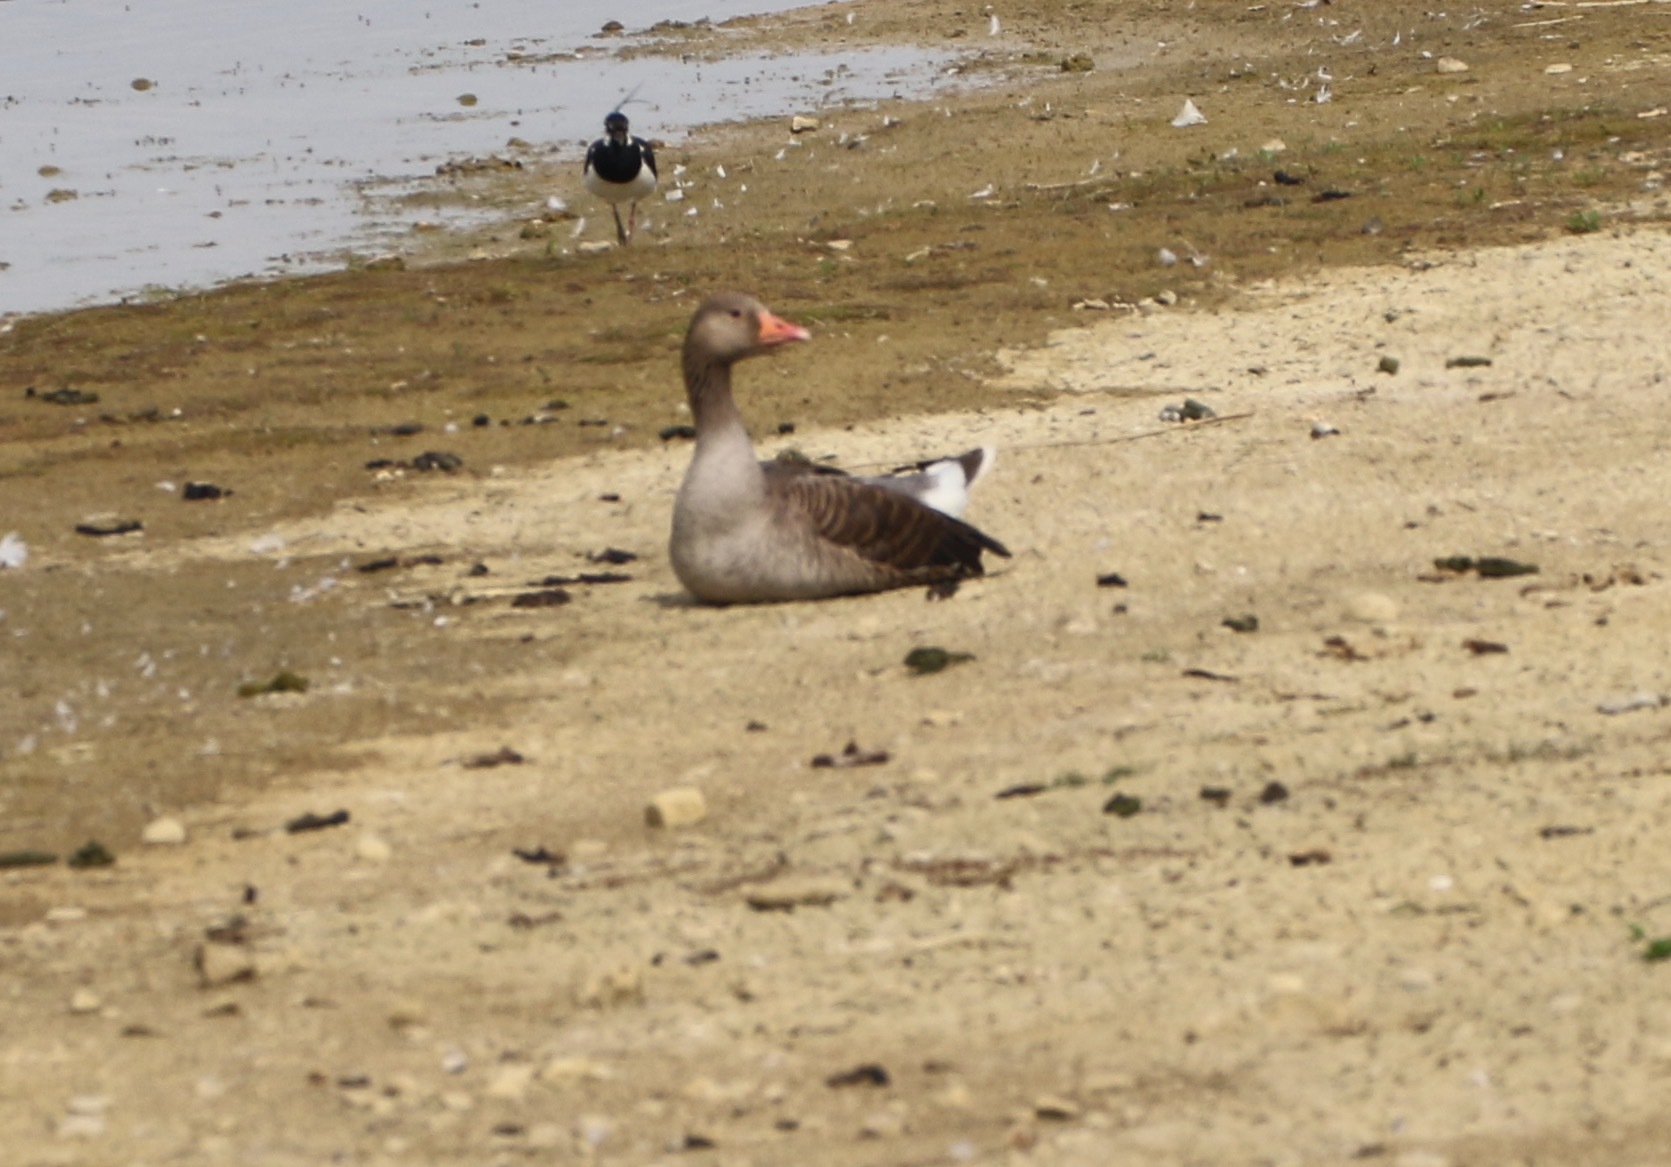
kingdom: Animalia
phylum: Chordata
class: Aves
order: Anseriformes
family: Anatidae
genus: Anser
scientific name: Anser anser
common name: Greylag goose
